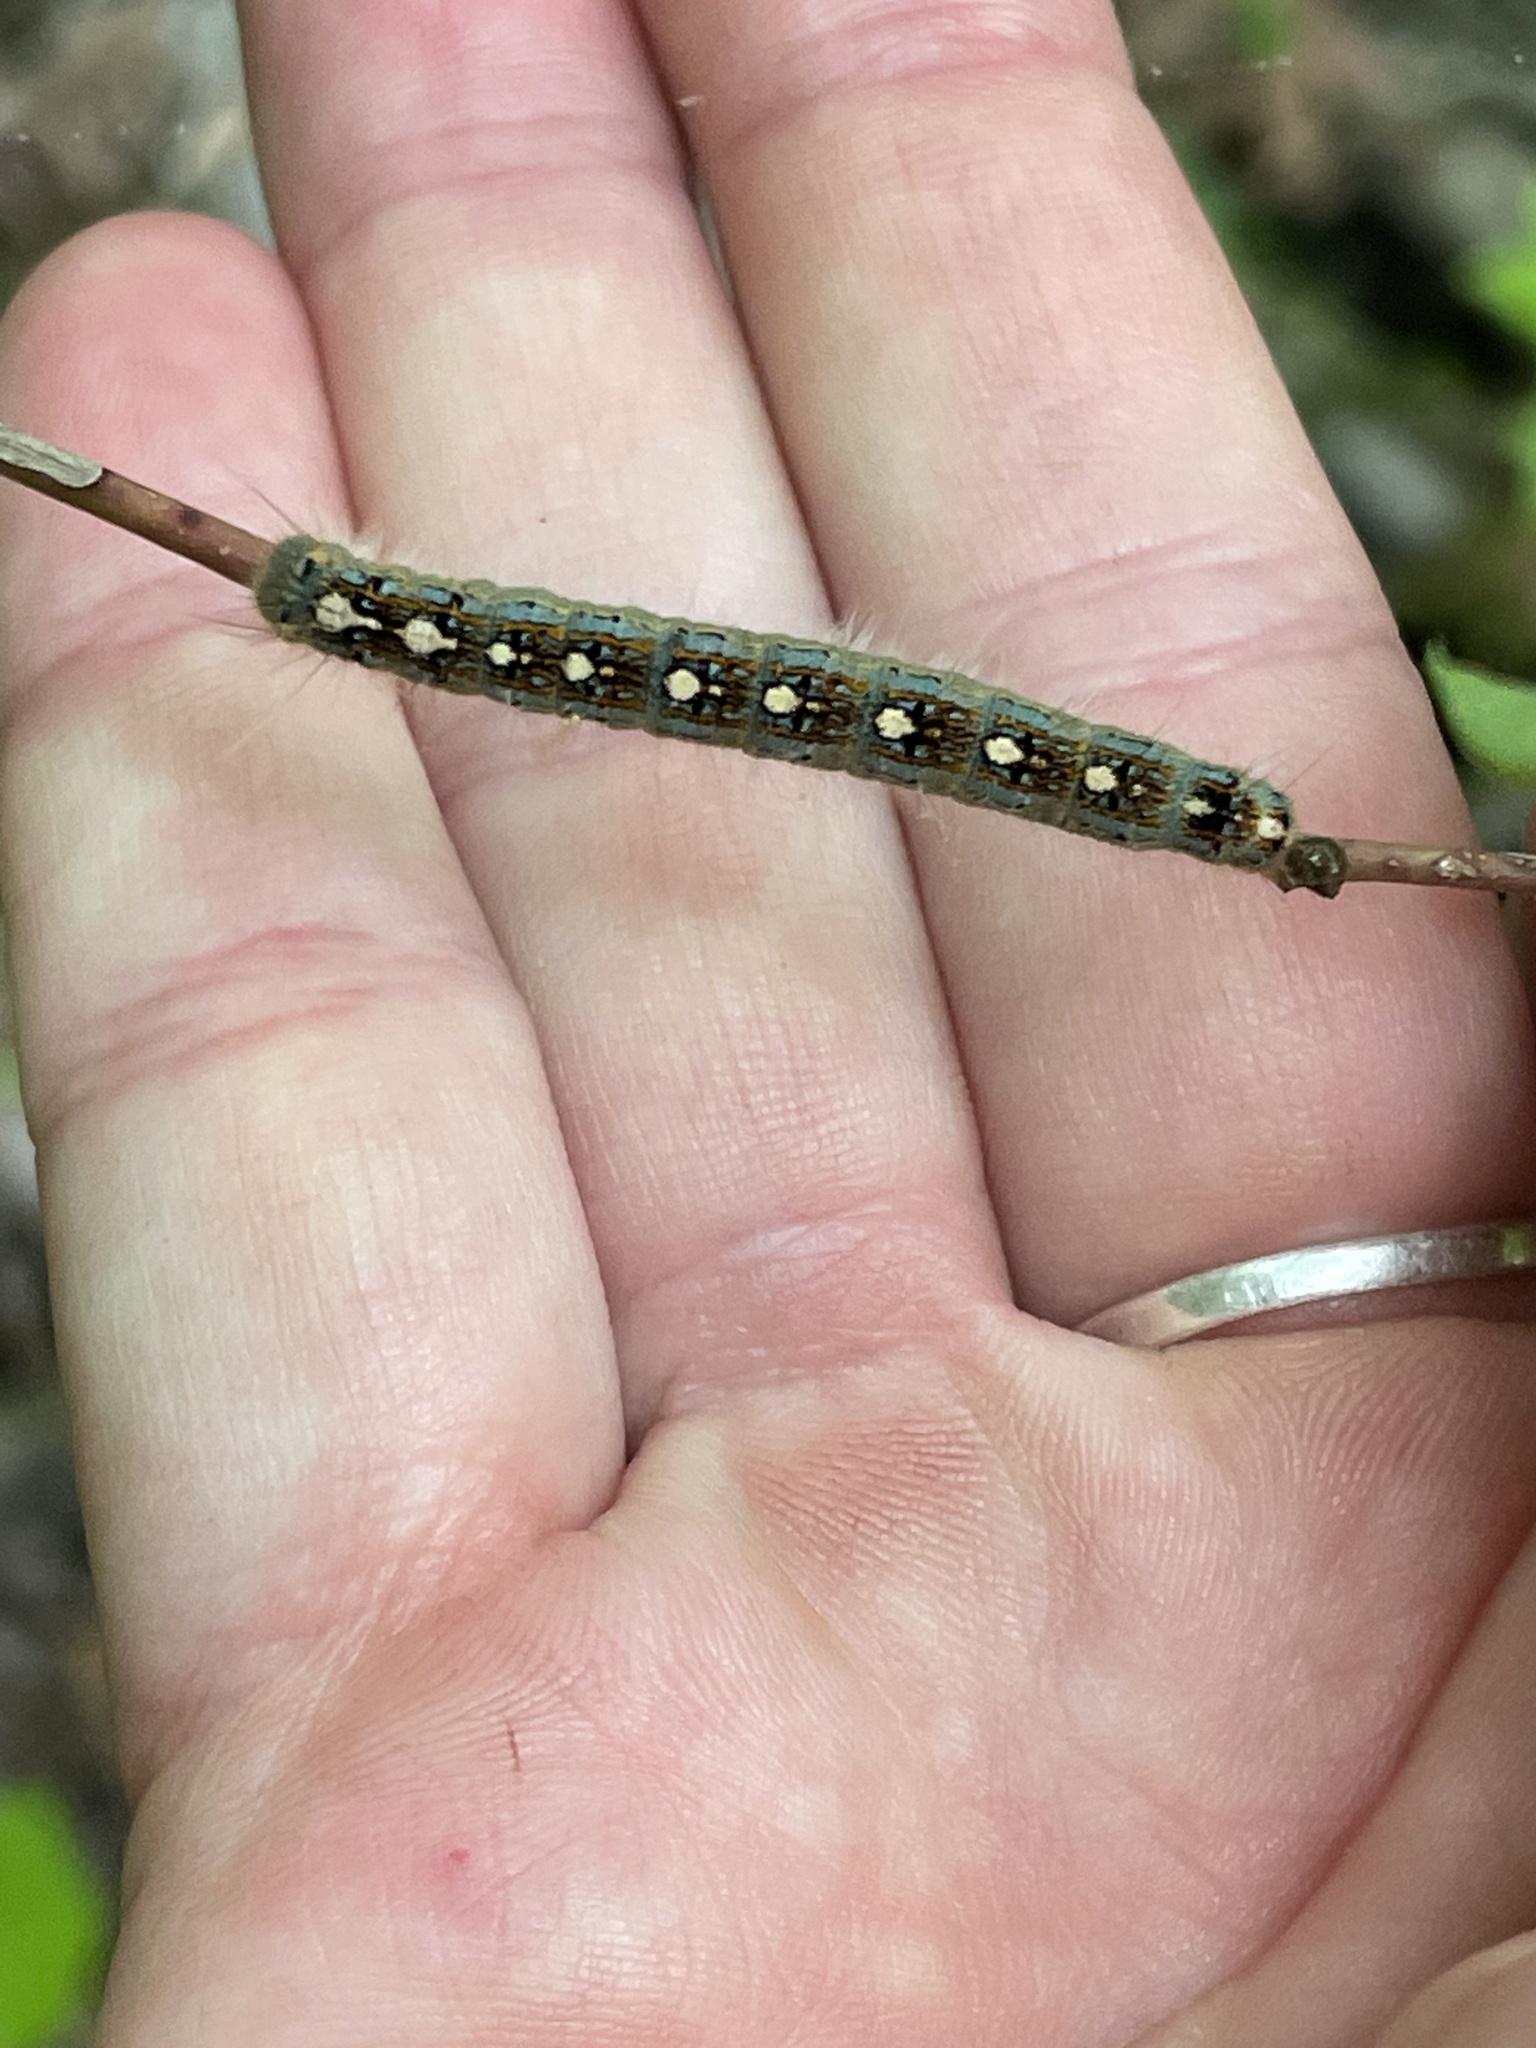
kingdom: Animalia
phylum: Arthropoda
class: Insecta
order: Lepidoptera
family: Lasiocampidae
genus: Malacosoma
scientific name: Malacosoma disstria
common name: Forest tent caterpillar
